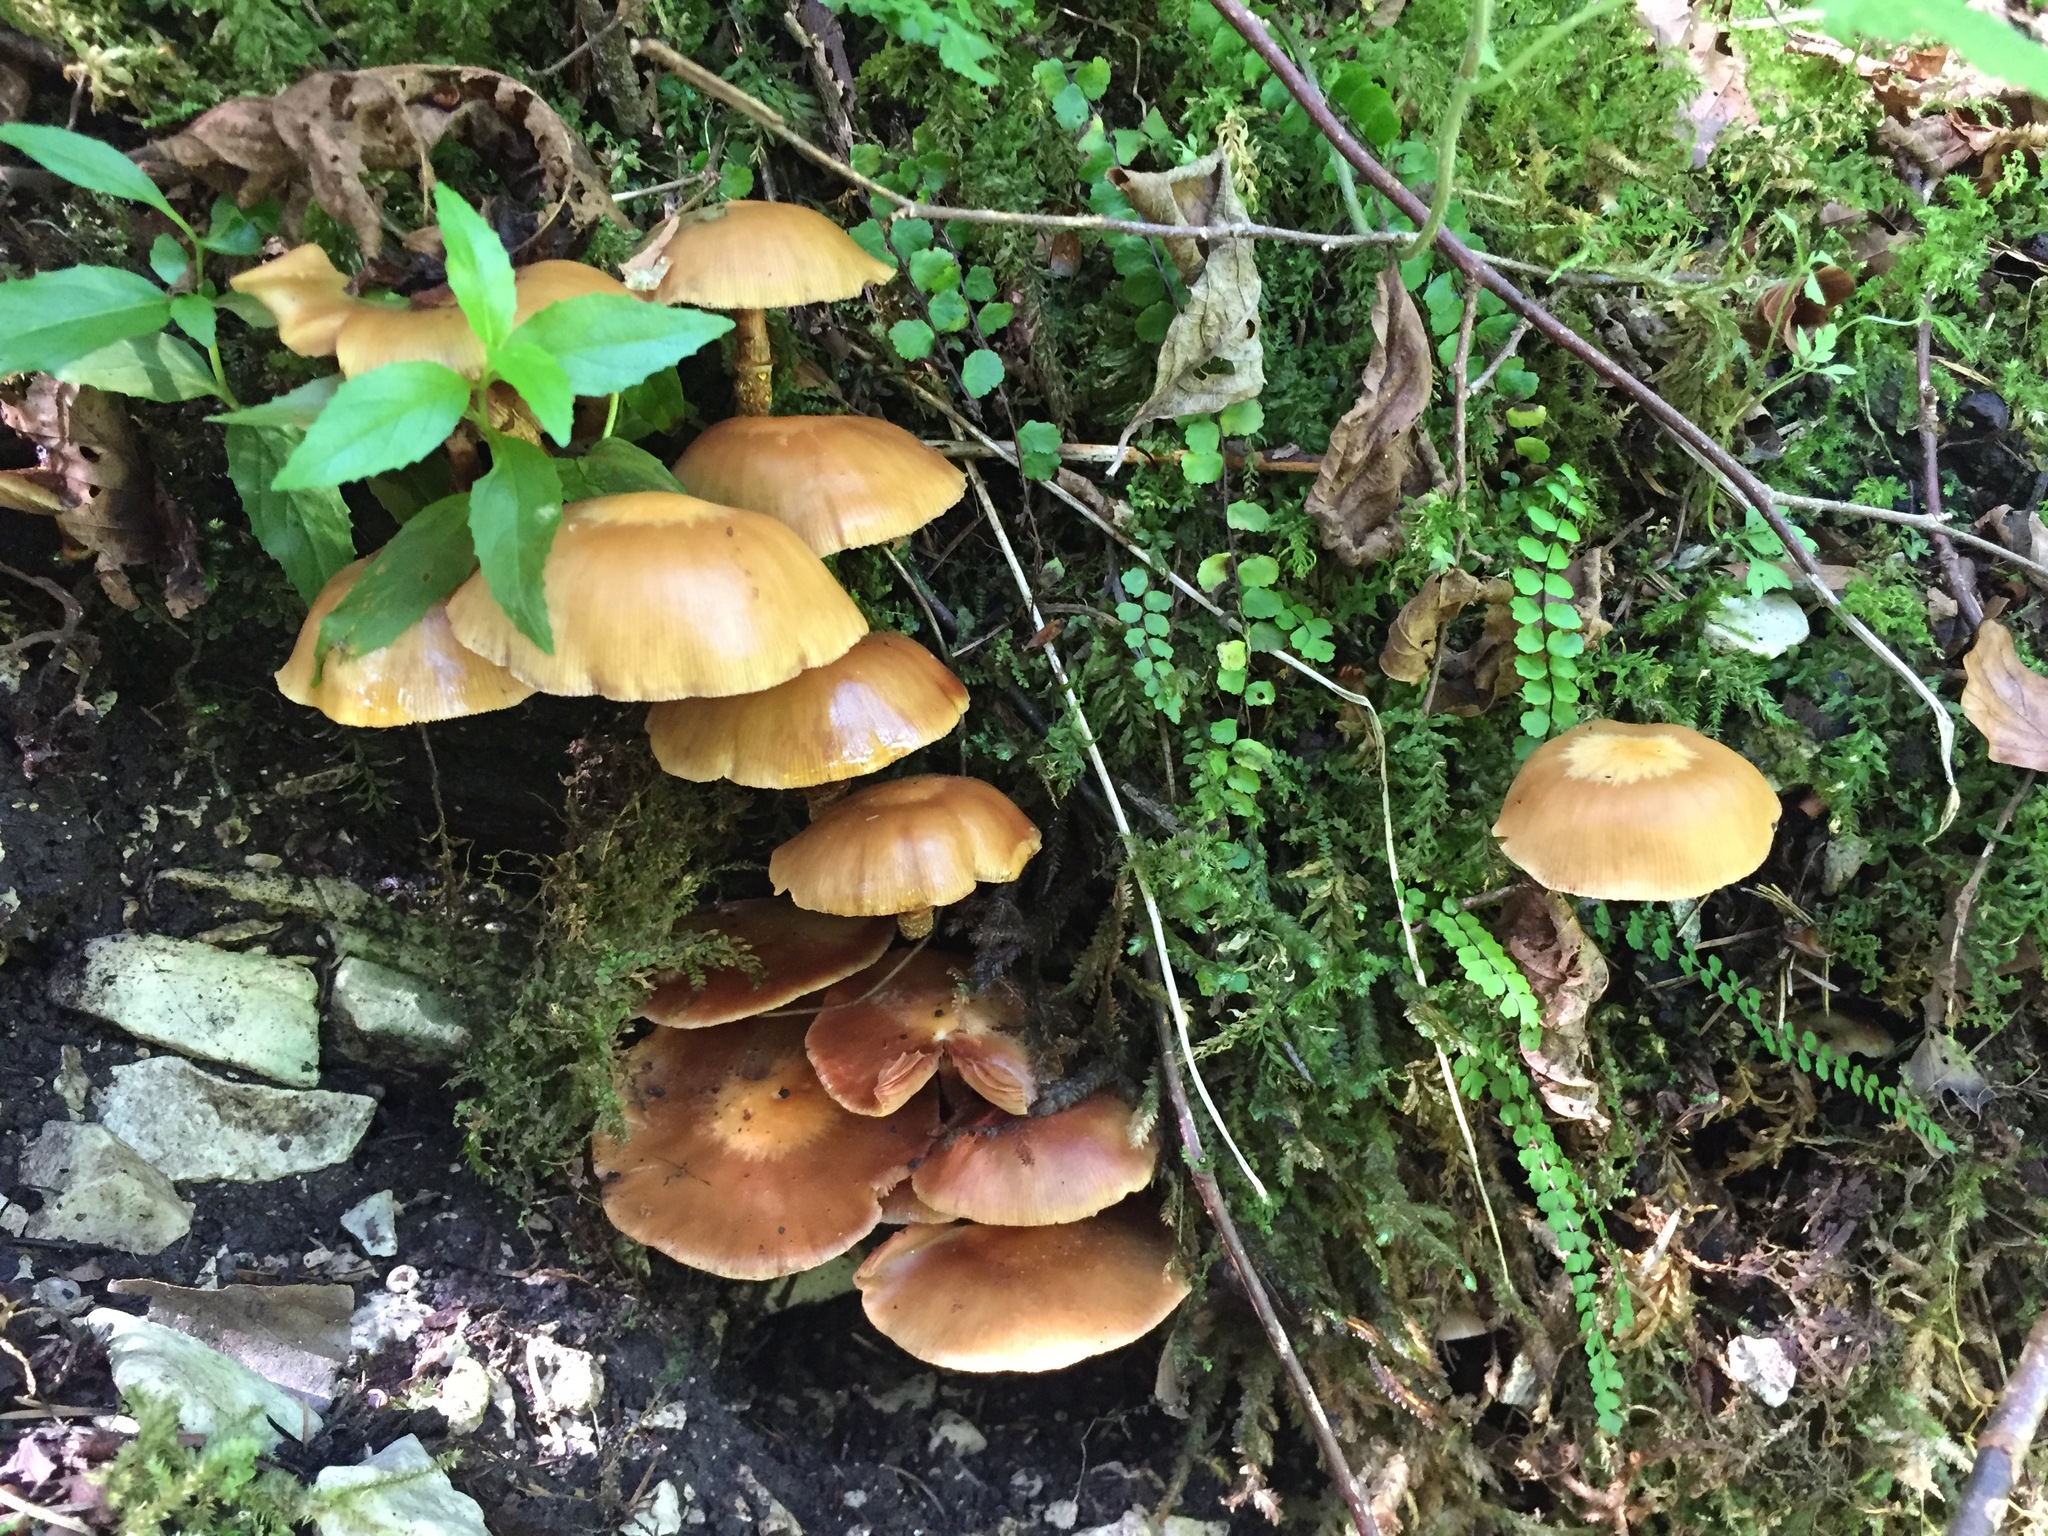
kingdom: Fungi
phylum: Basidiomycota
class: Agaricomycetes
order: Agaricales
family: Strophariaceae
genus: Kuehneromyces
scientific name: Kuehneromyces mutabilis
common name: Sheathed woodtuft
